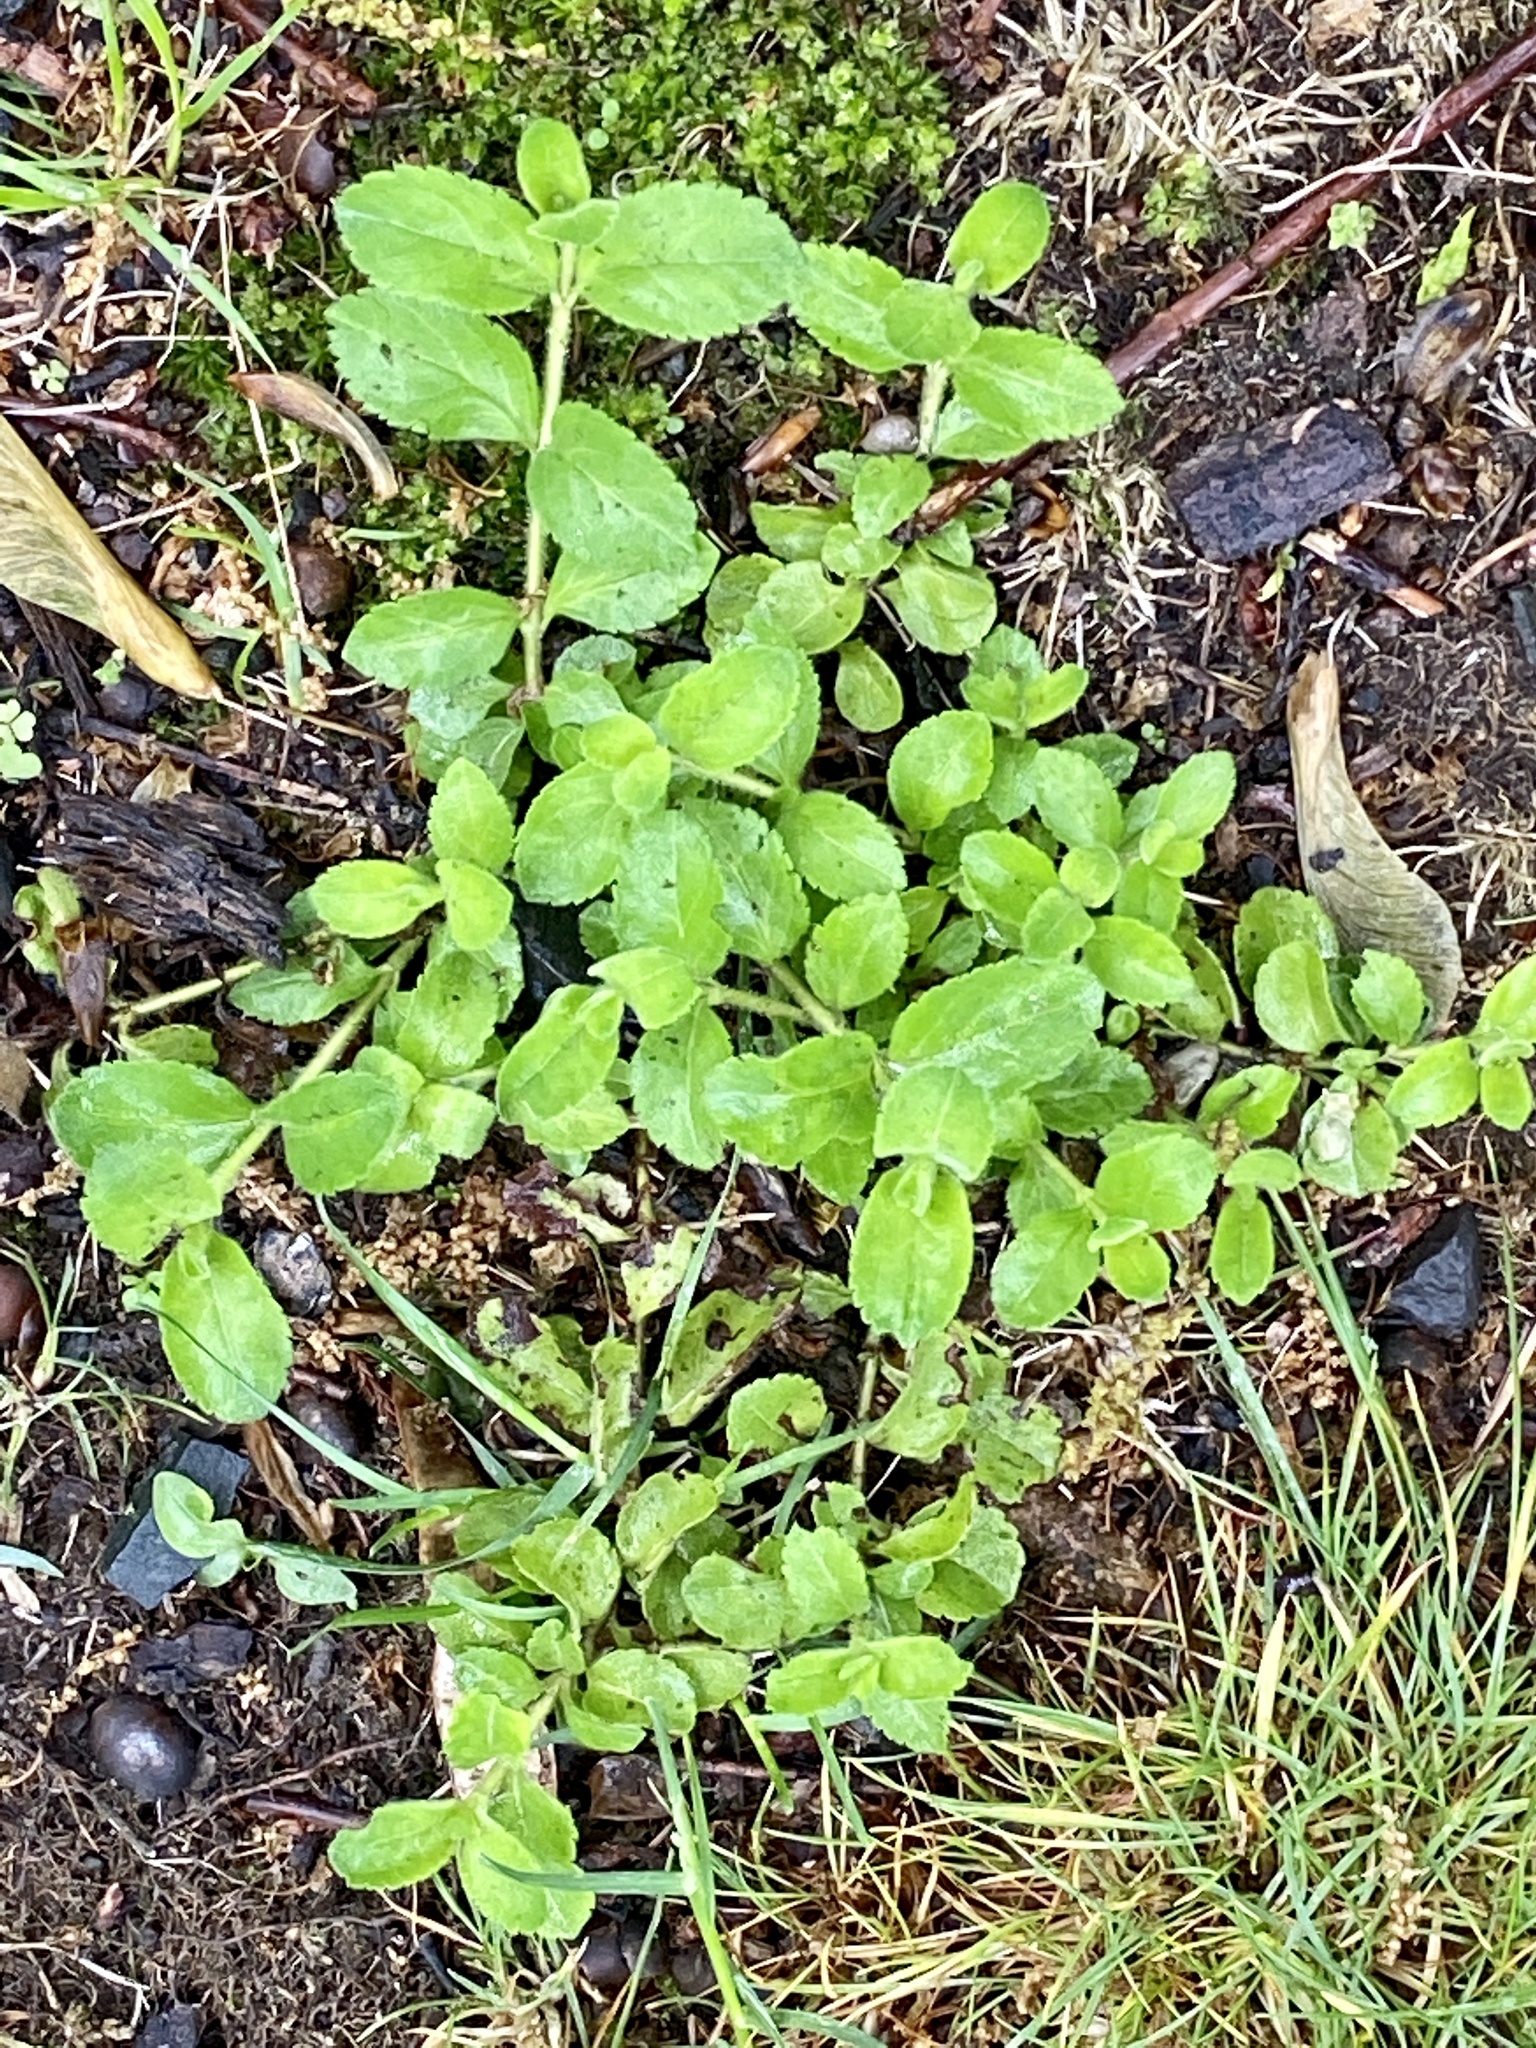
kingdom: Plantae
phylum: Tracheophyta
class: Magnoliopsida
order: Lamiales
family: Plantaginaceae
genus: Veronica
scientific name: Veronica officinalis
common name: Common speedwell
